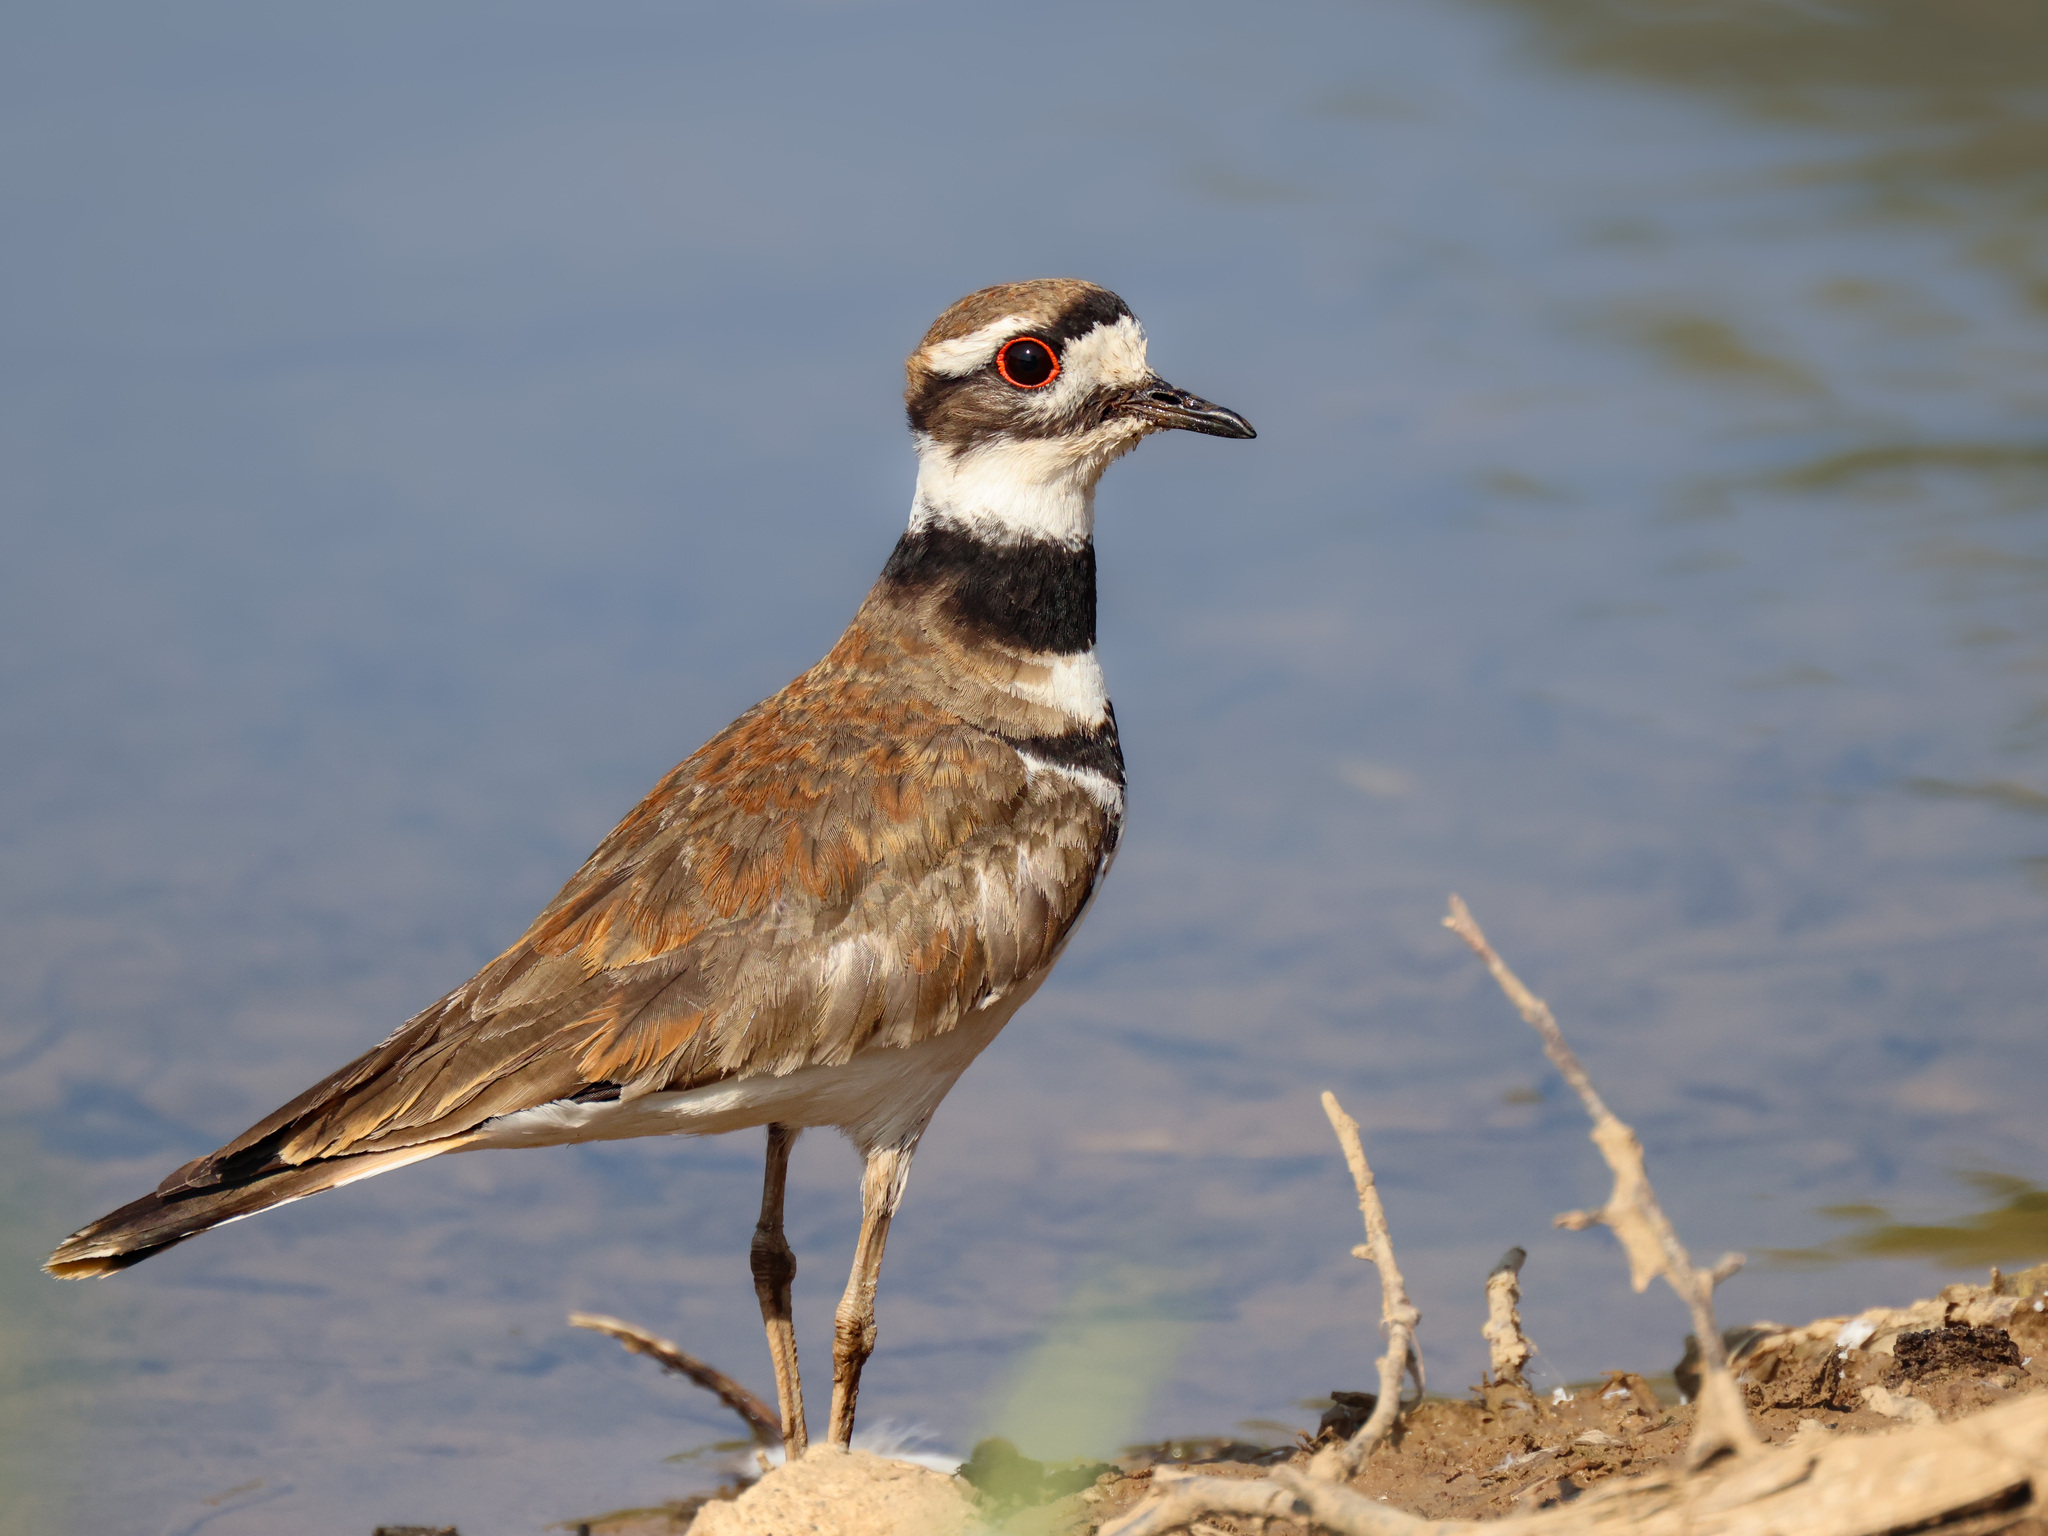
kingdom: Animalia
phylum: Chordata
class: Aves
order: Charadriiformes
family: Charadriidae
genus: Charadrius
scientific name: Charadrius vociferus
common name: Killdeer
